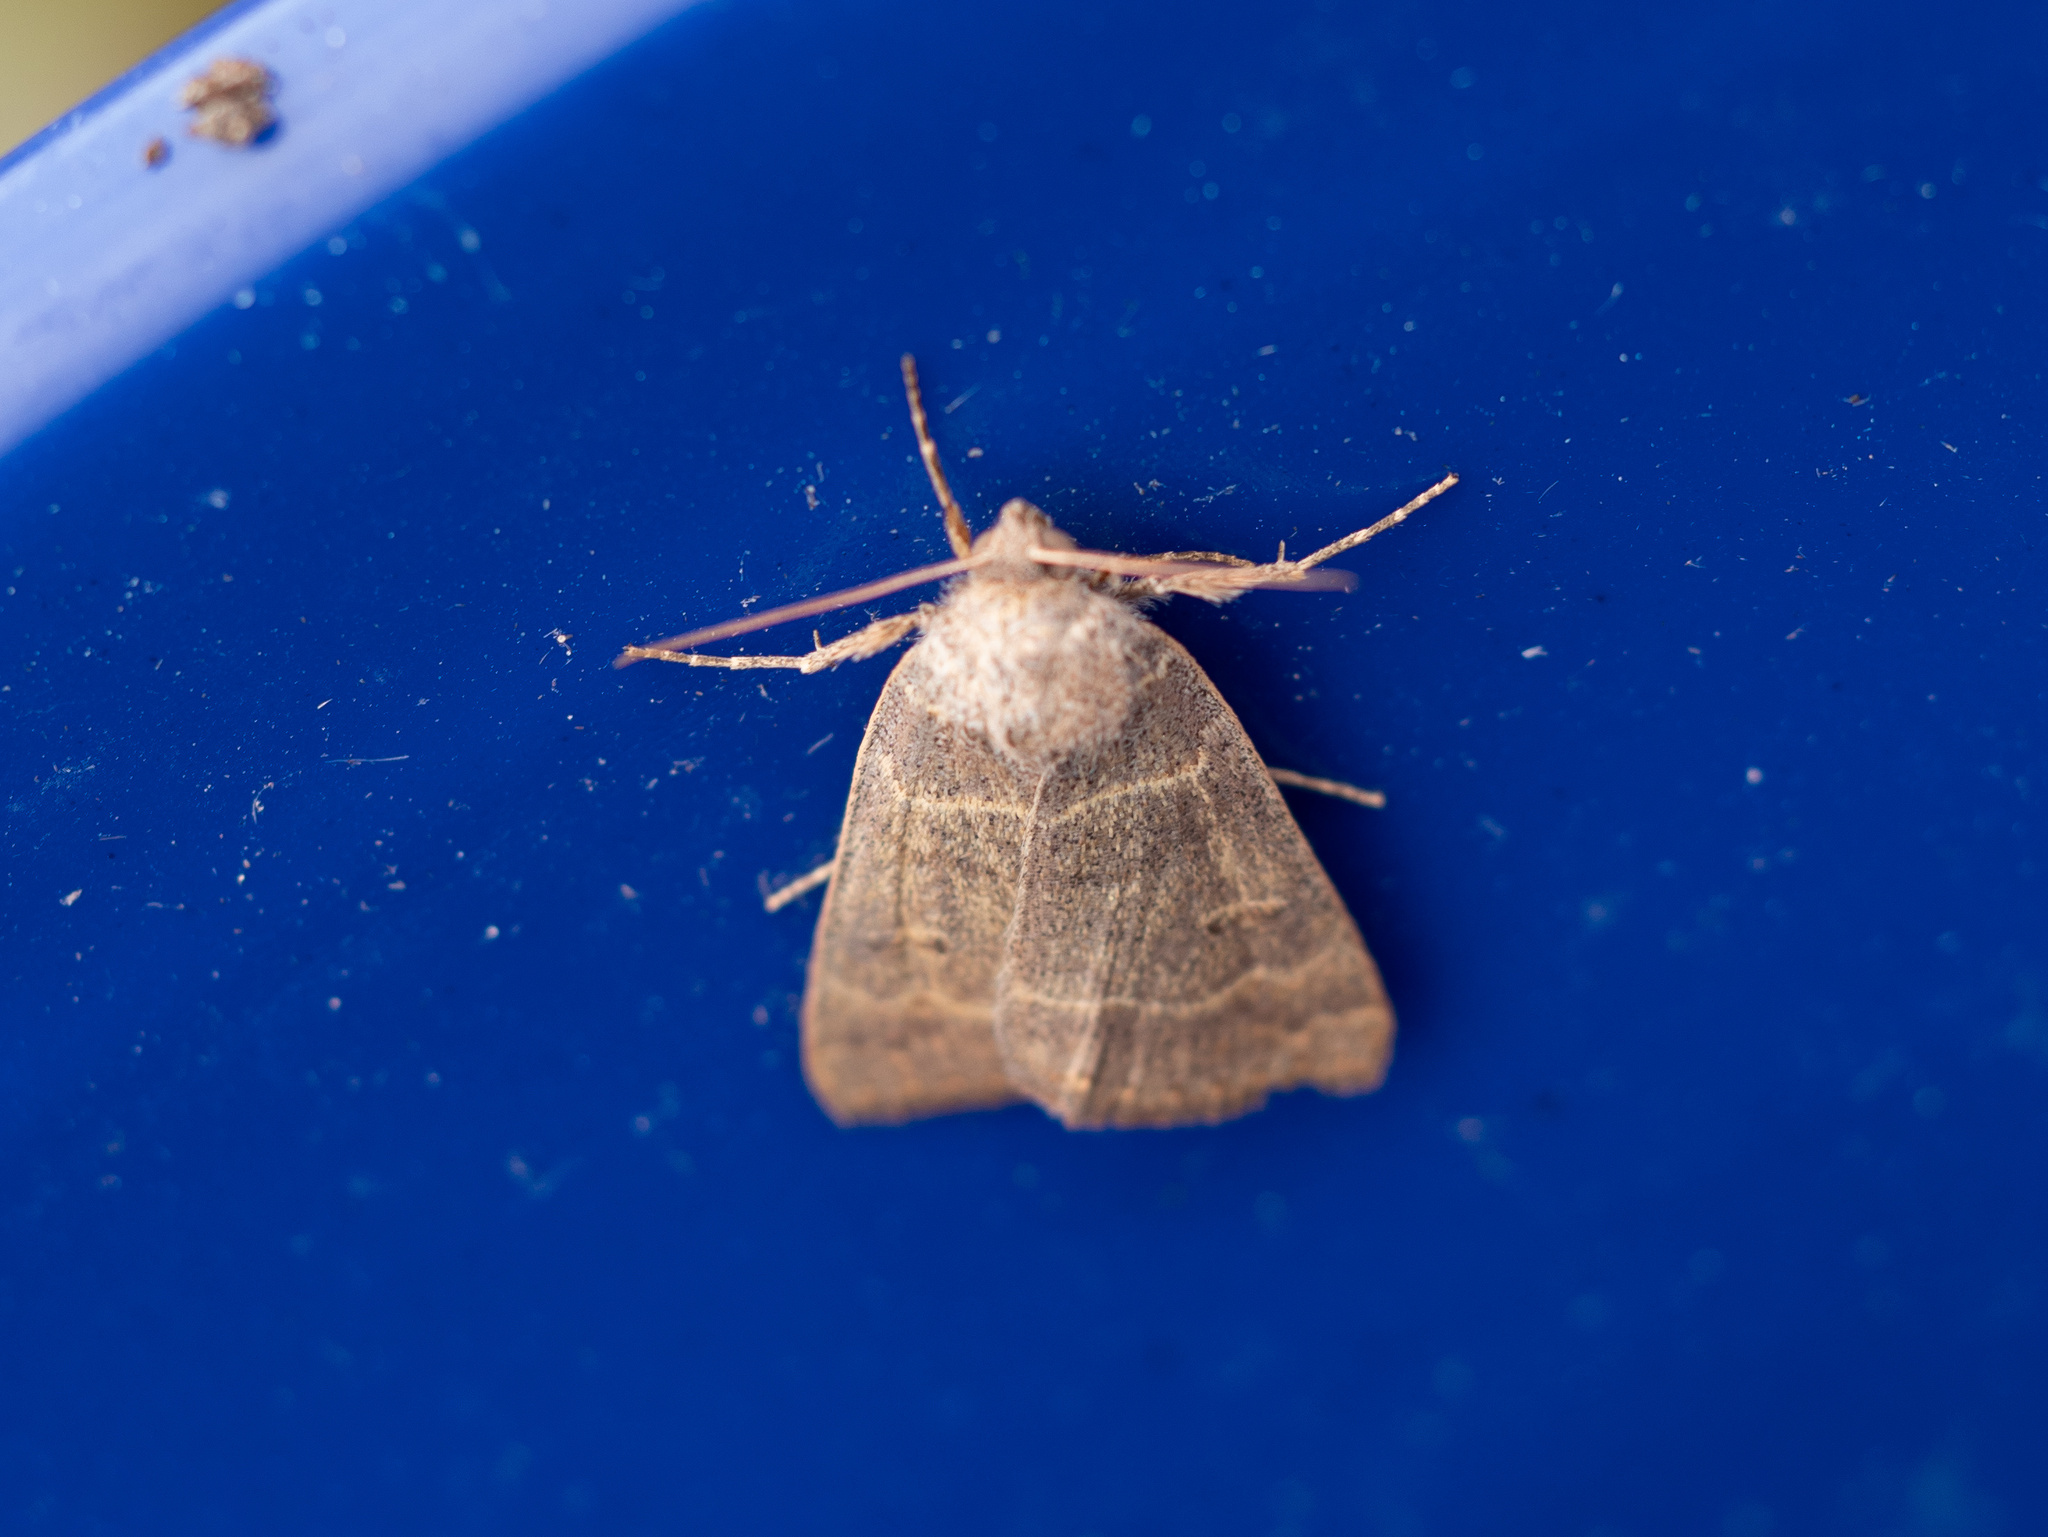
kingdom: Animalia
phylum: Arthropoda
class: Insecta
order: Lepidoptera
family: Erebidae
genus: Phoberia
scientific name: Phoberia atomaris
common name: Common oak moth
